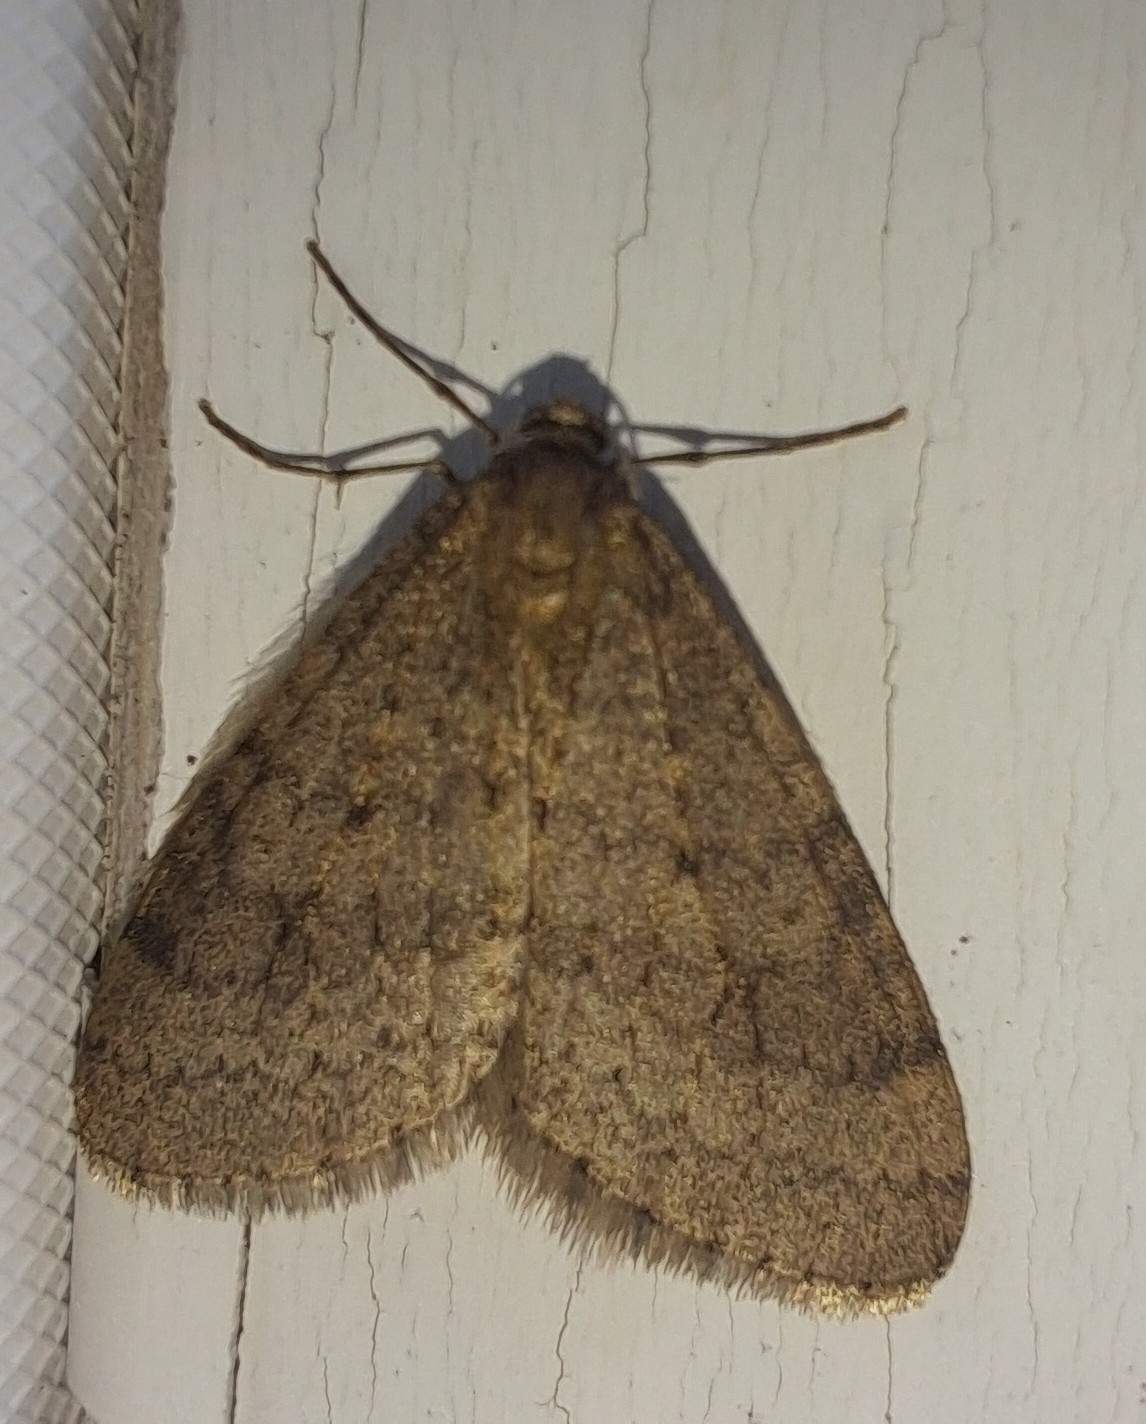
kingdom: Animalia
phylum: Arthropoda
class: Insecta
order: Lepidoptera
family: Geometridae
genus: Operophtera
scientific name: Operophtera bruceata
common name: Bruce spanworm
